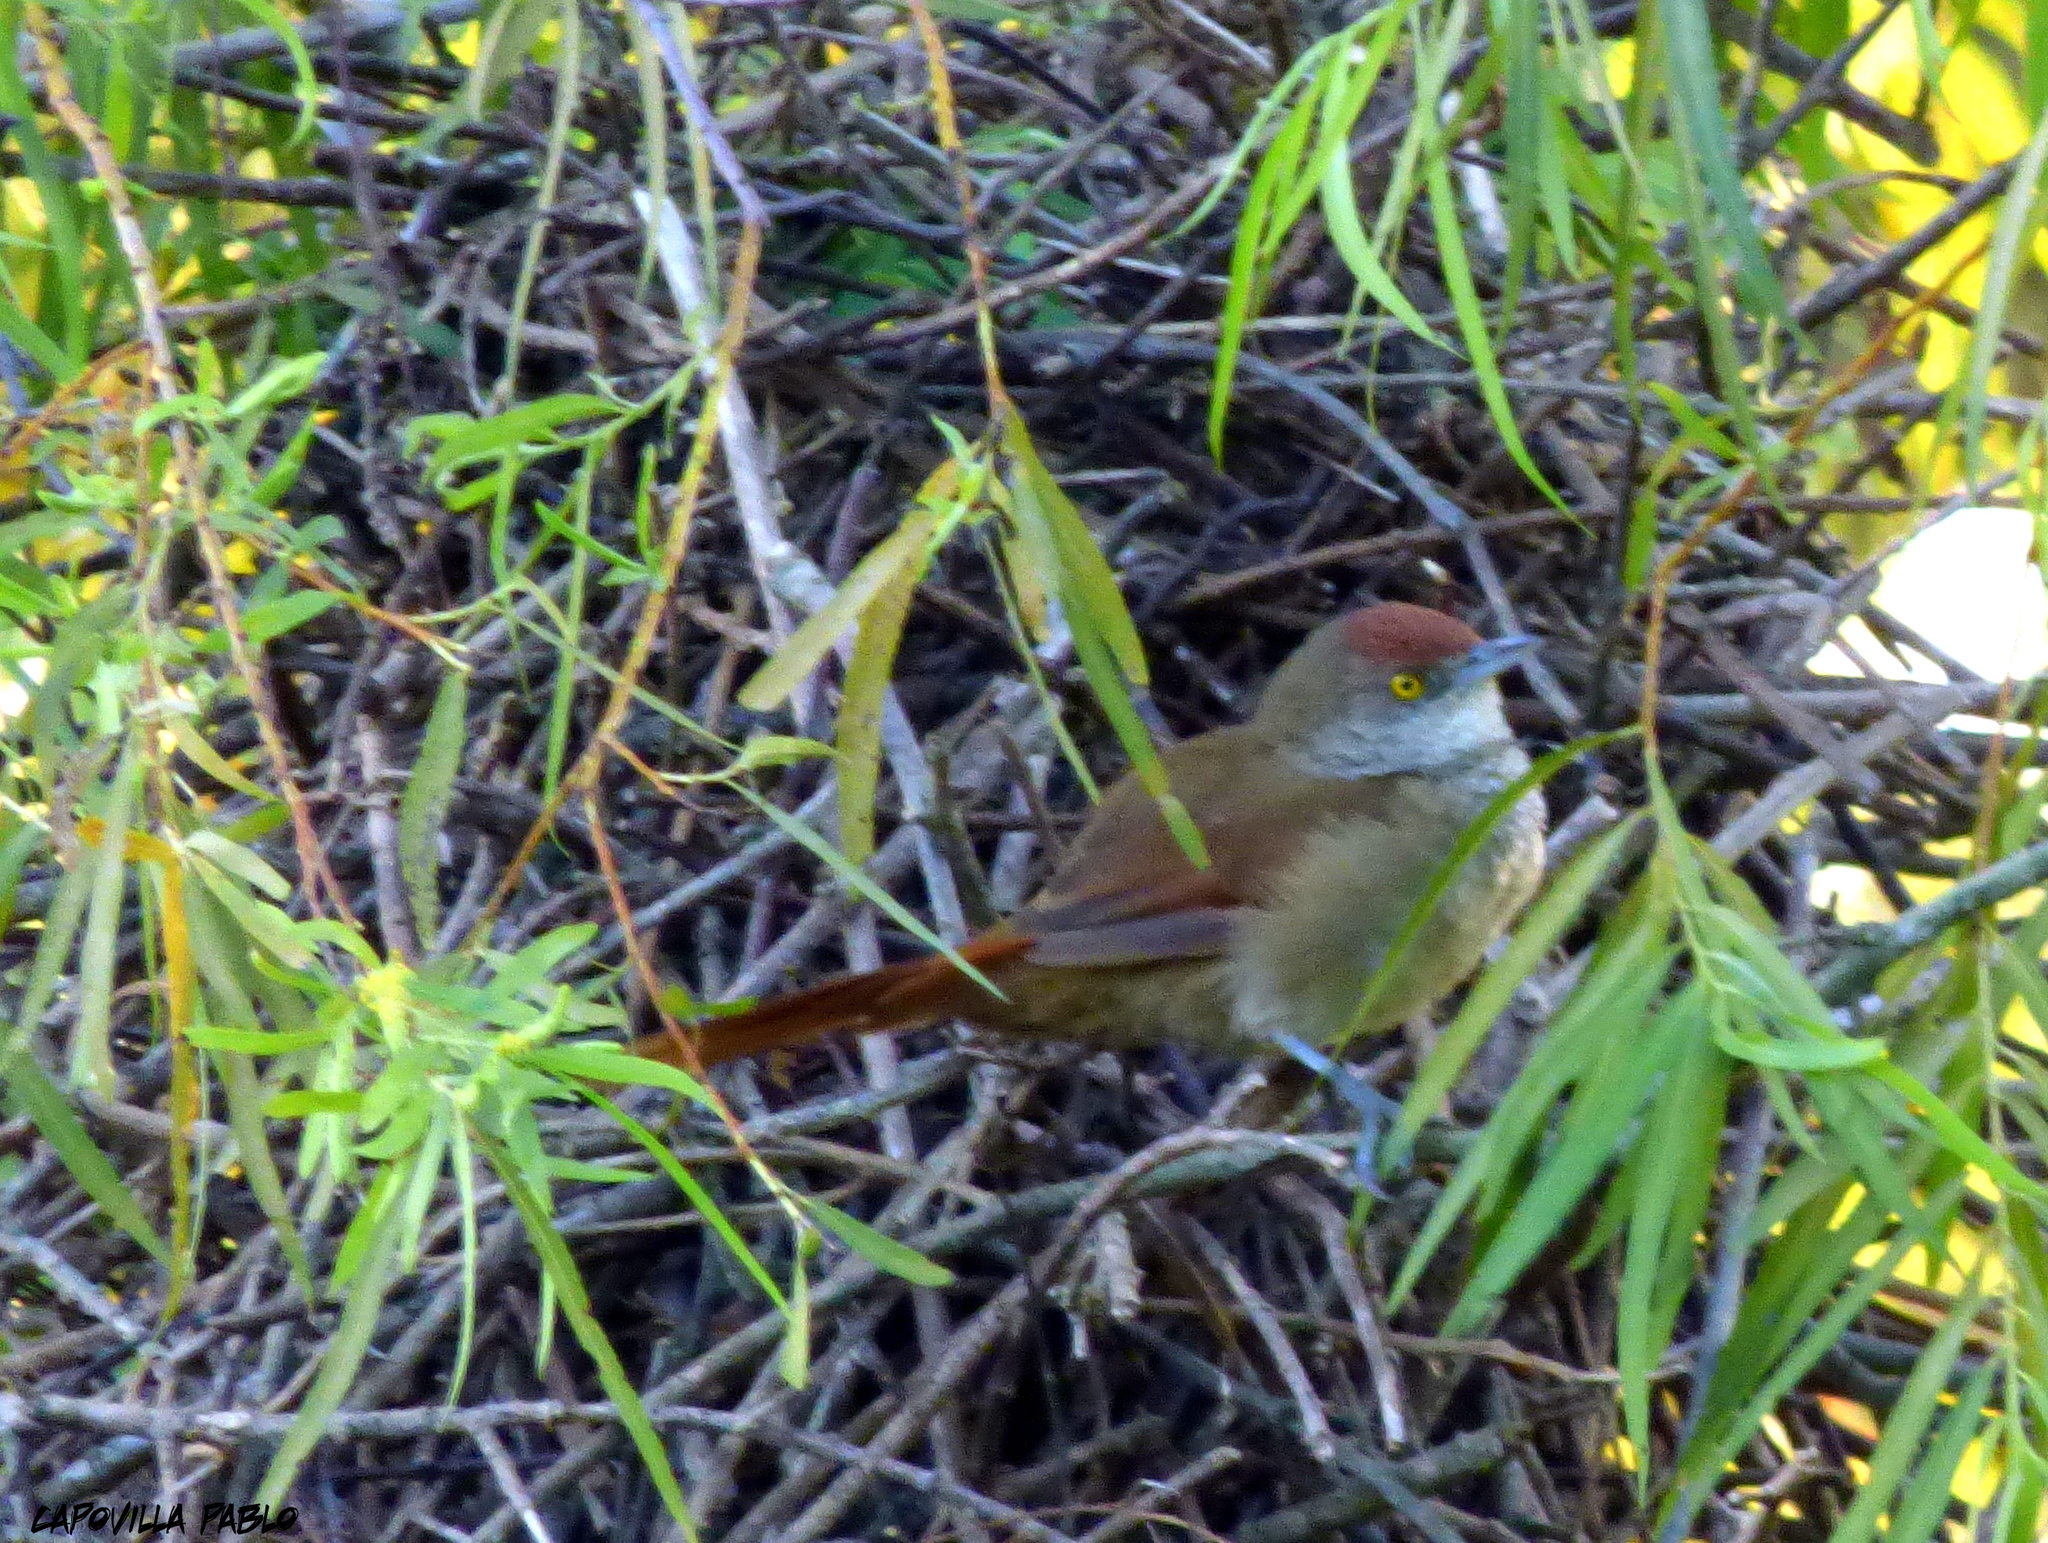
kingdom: Animalia
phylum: Chordata
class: Aves
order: Passeriformes
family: Furnariidae
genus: Phacellodomus
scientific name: Phacellodomus ruber
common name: Greater thornbird
